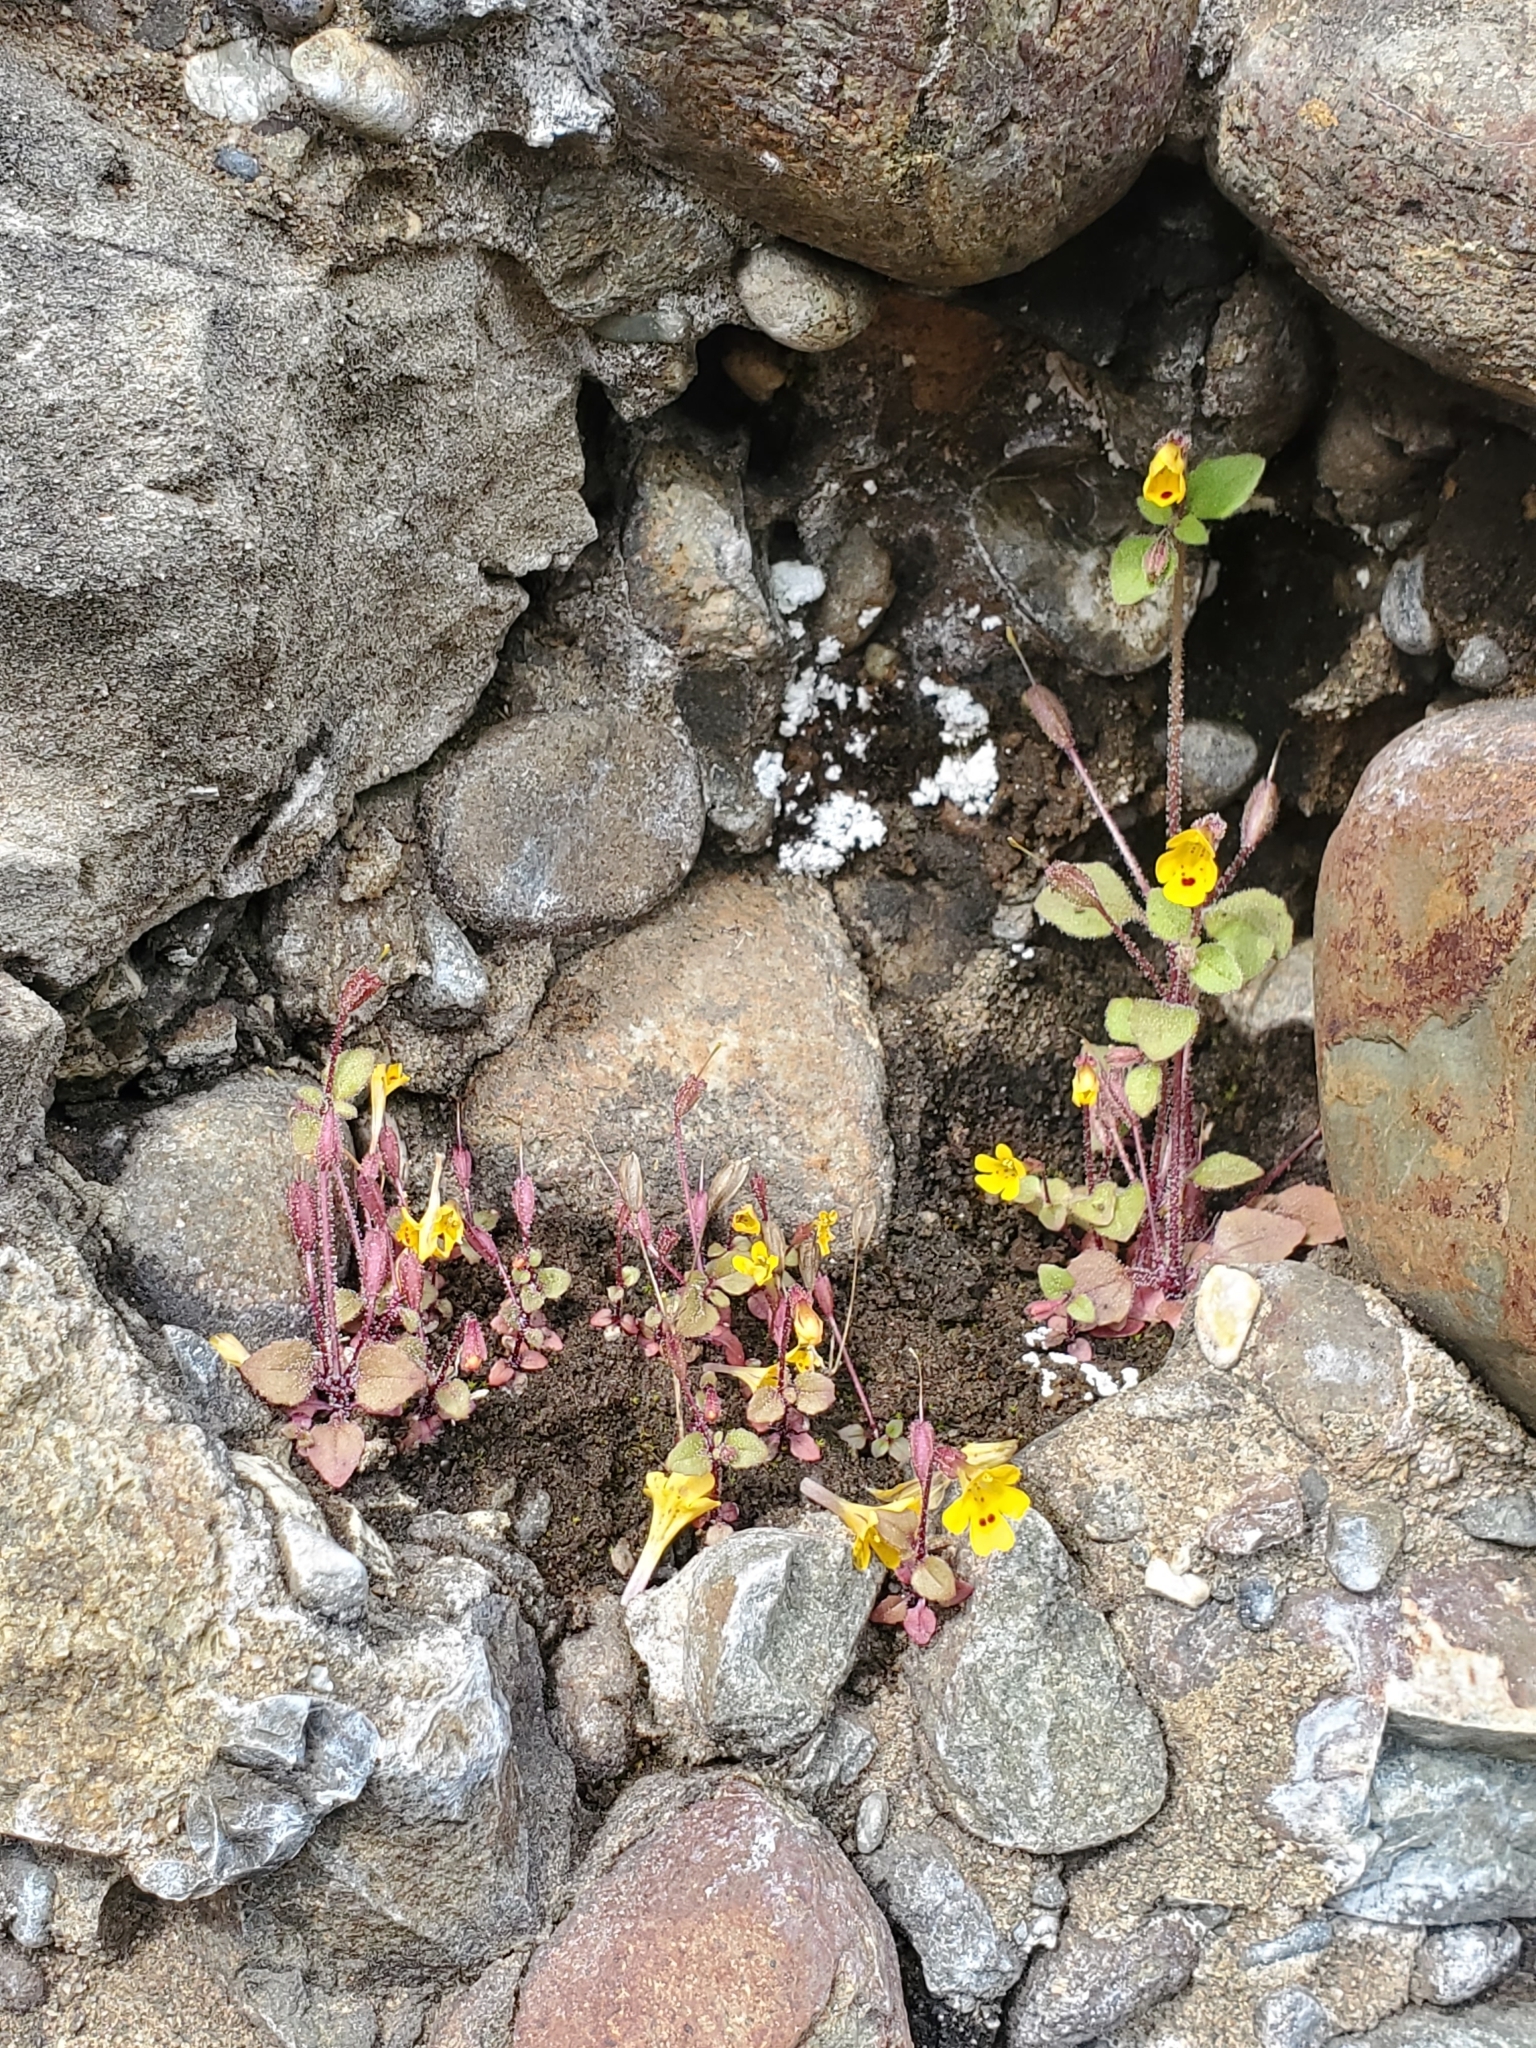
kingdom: Plantae
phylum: Tracheophyta
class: Magnoliopsida
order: Lamiales
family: Phrymaceae
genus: Erythranthe
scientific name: Erythranthe alsinoides
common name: Chickweed monkeyflower
